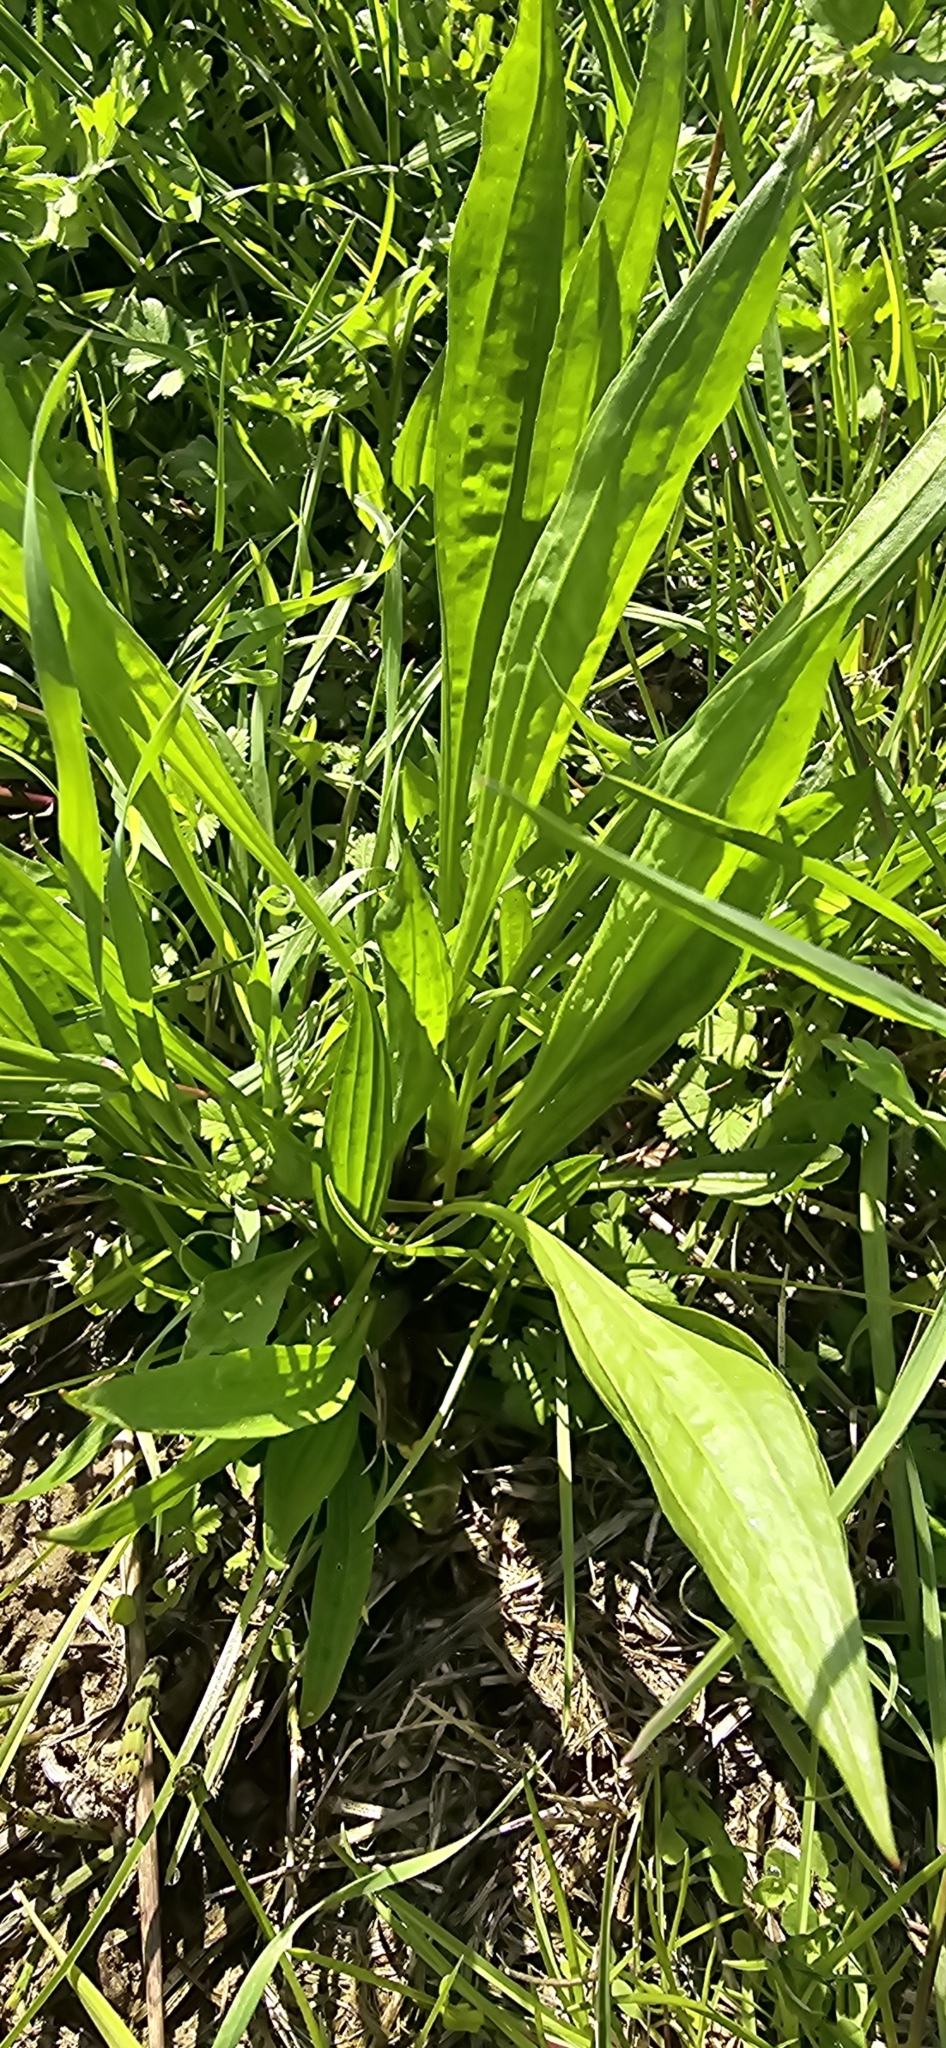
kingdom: Plantae
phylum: Tracheophyta
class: Magnoliopsida
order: Lamiales
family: Plantaginaceae
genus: Plantago
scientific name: Plantago lanceolata
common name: Ribwort plantain
